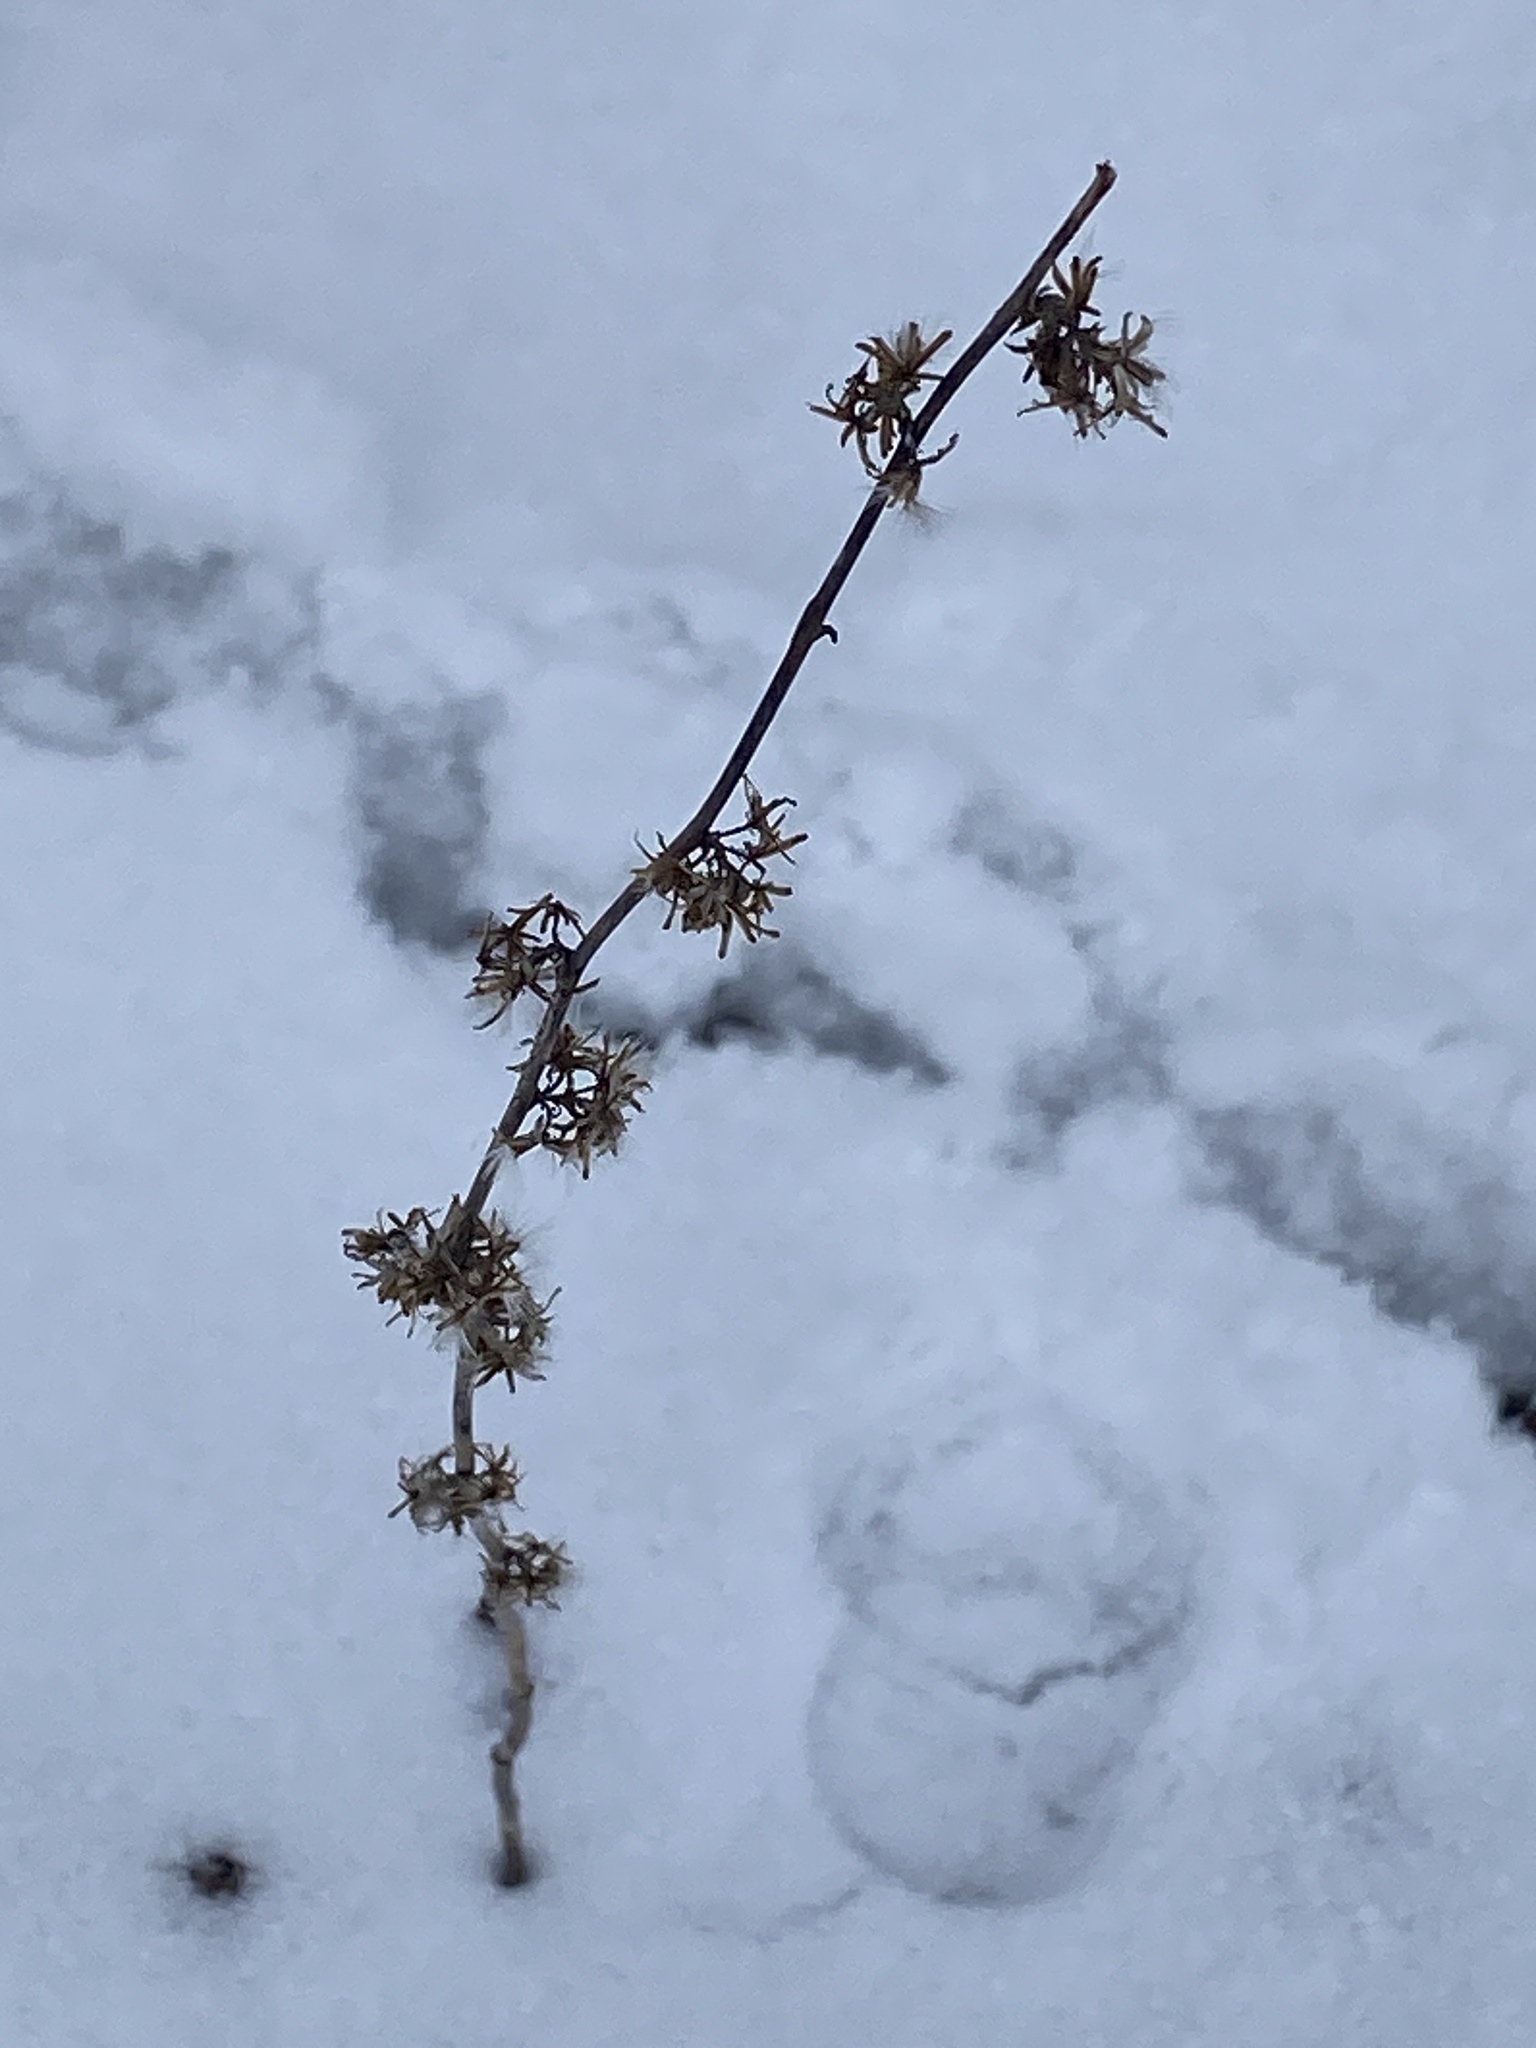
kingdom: Plantae
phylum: Tracheophyta
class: Magnoliopsida
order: Asterales
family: Asteraceae
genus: Solidago
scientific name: Solidago caesia
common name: Woodland goldenrod
